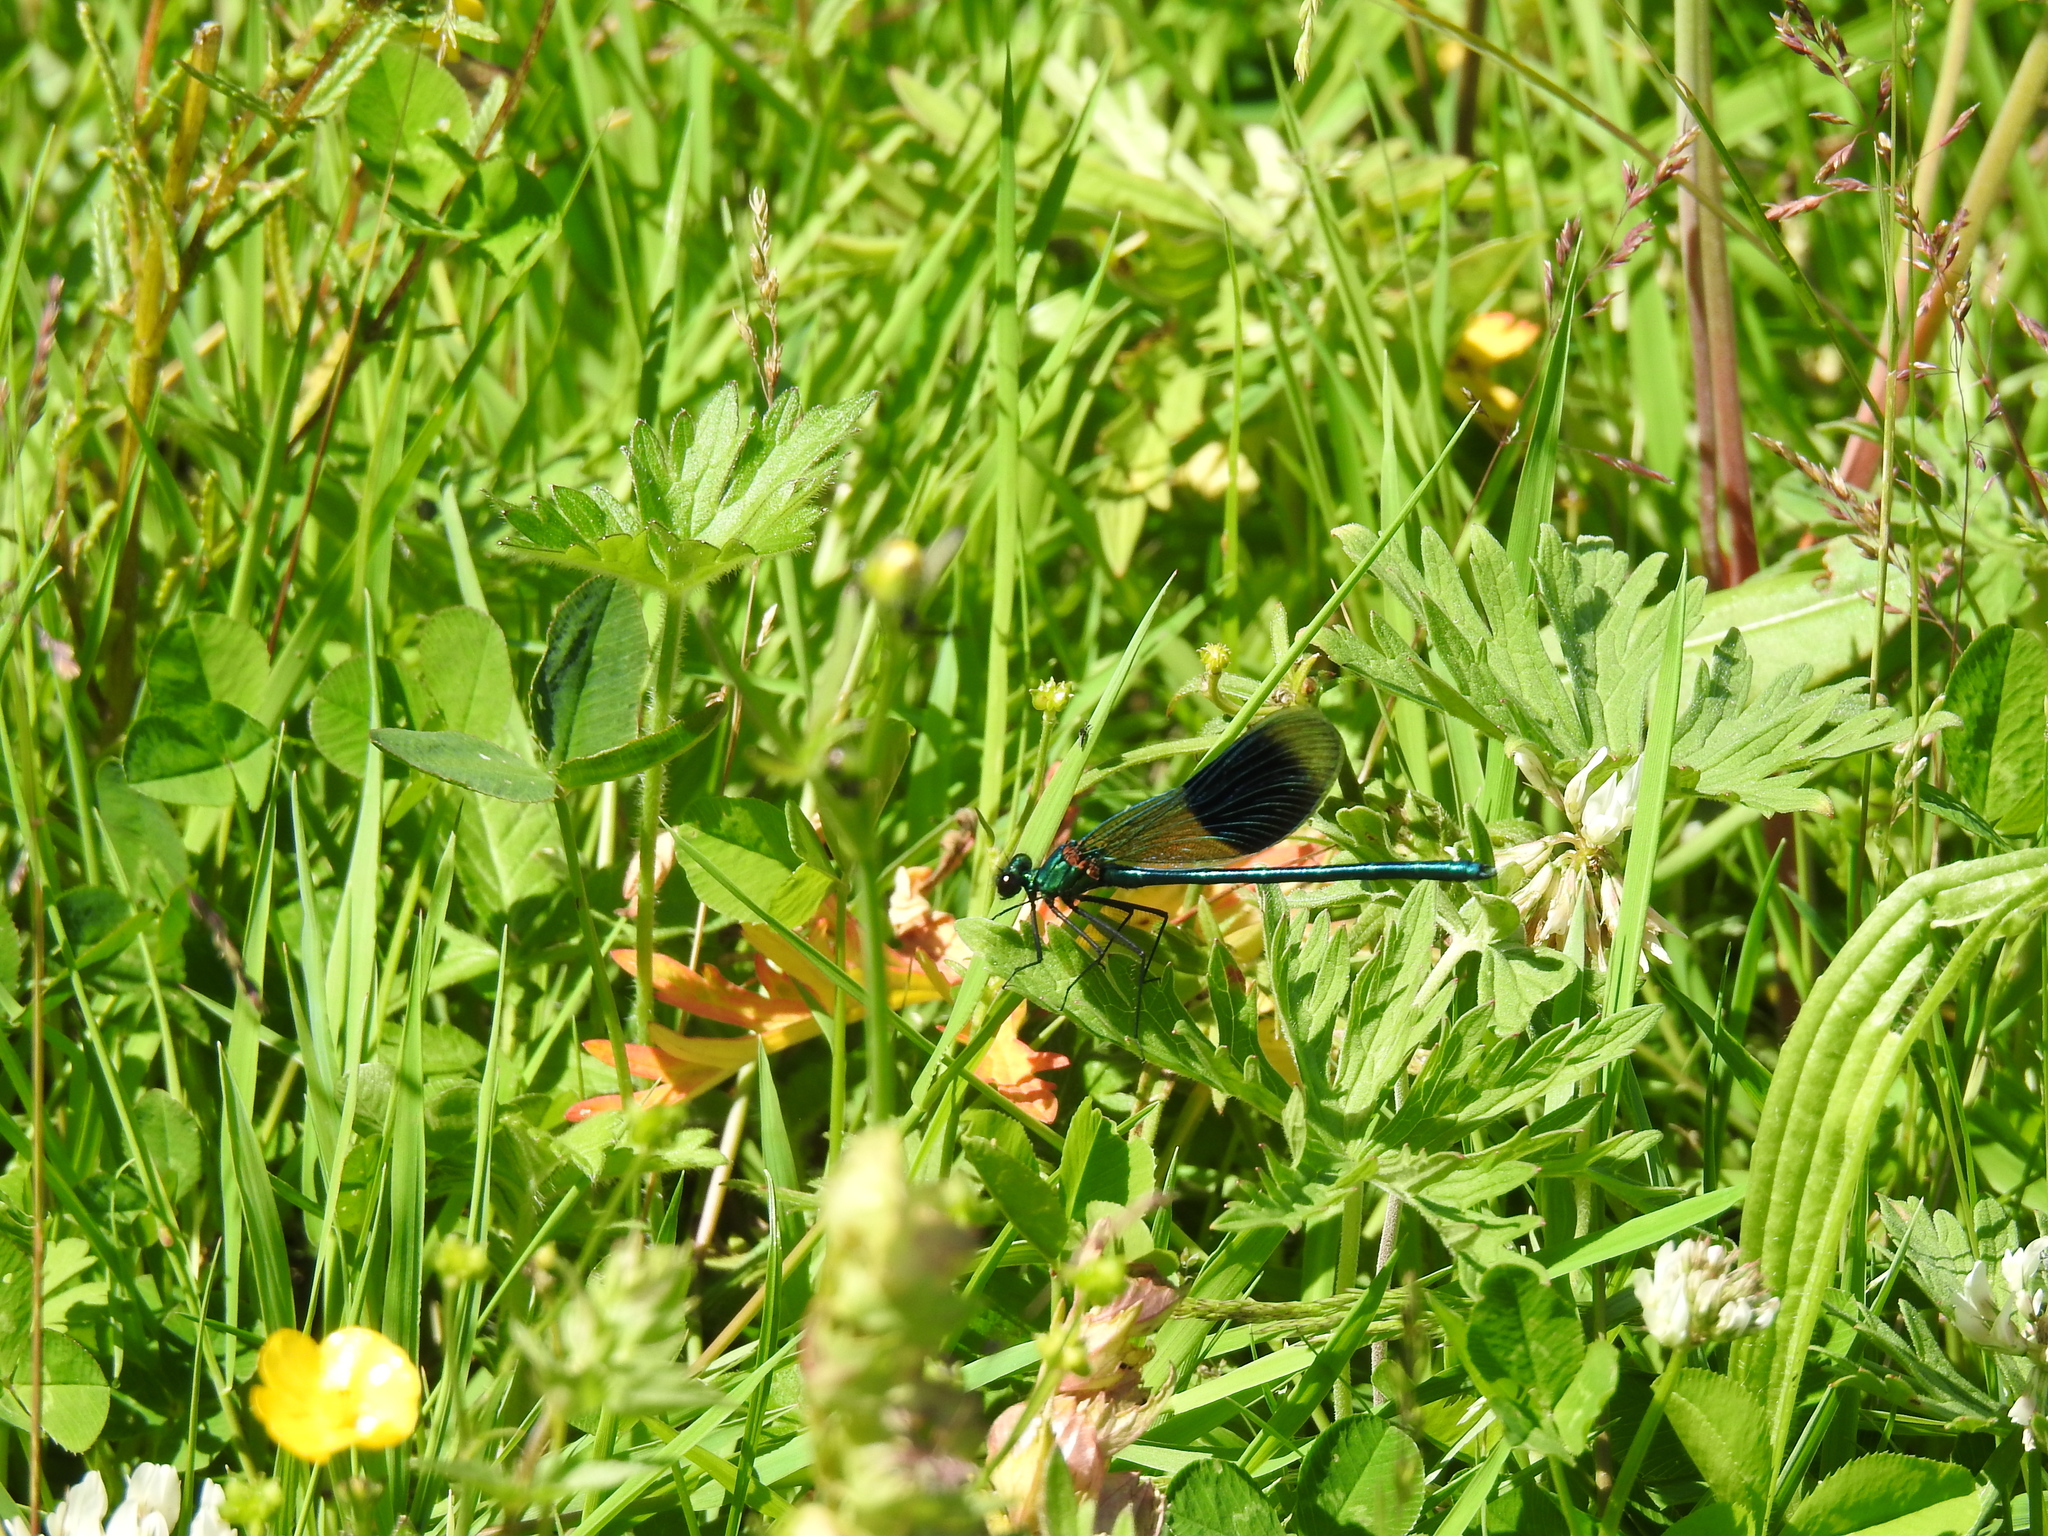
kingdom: Animalia
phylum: Arthropoda
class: Insecta
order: Odonata
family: Calopterygidae
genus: Calopteryx
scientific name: Calopteryx splendens
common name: Banded demoiselle
